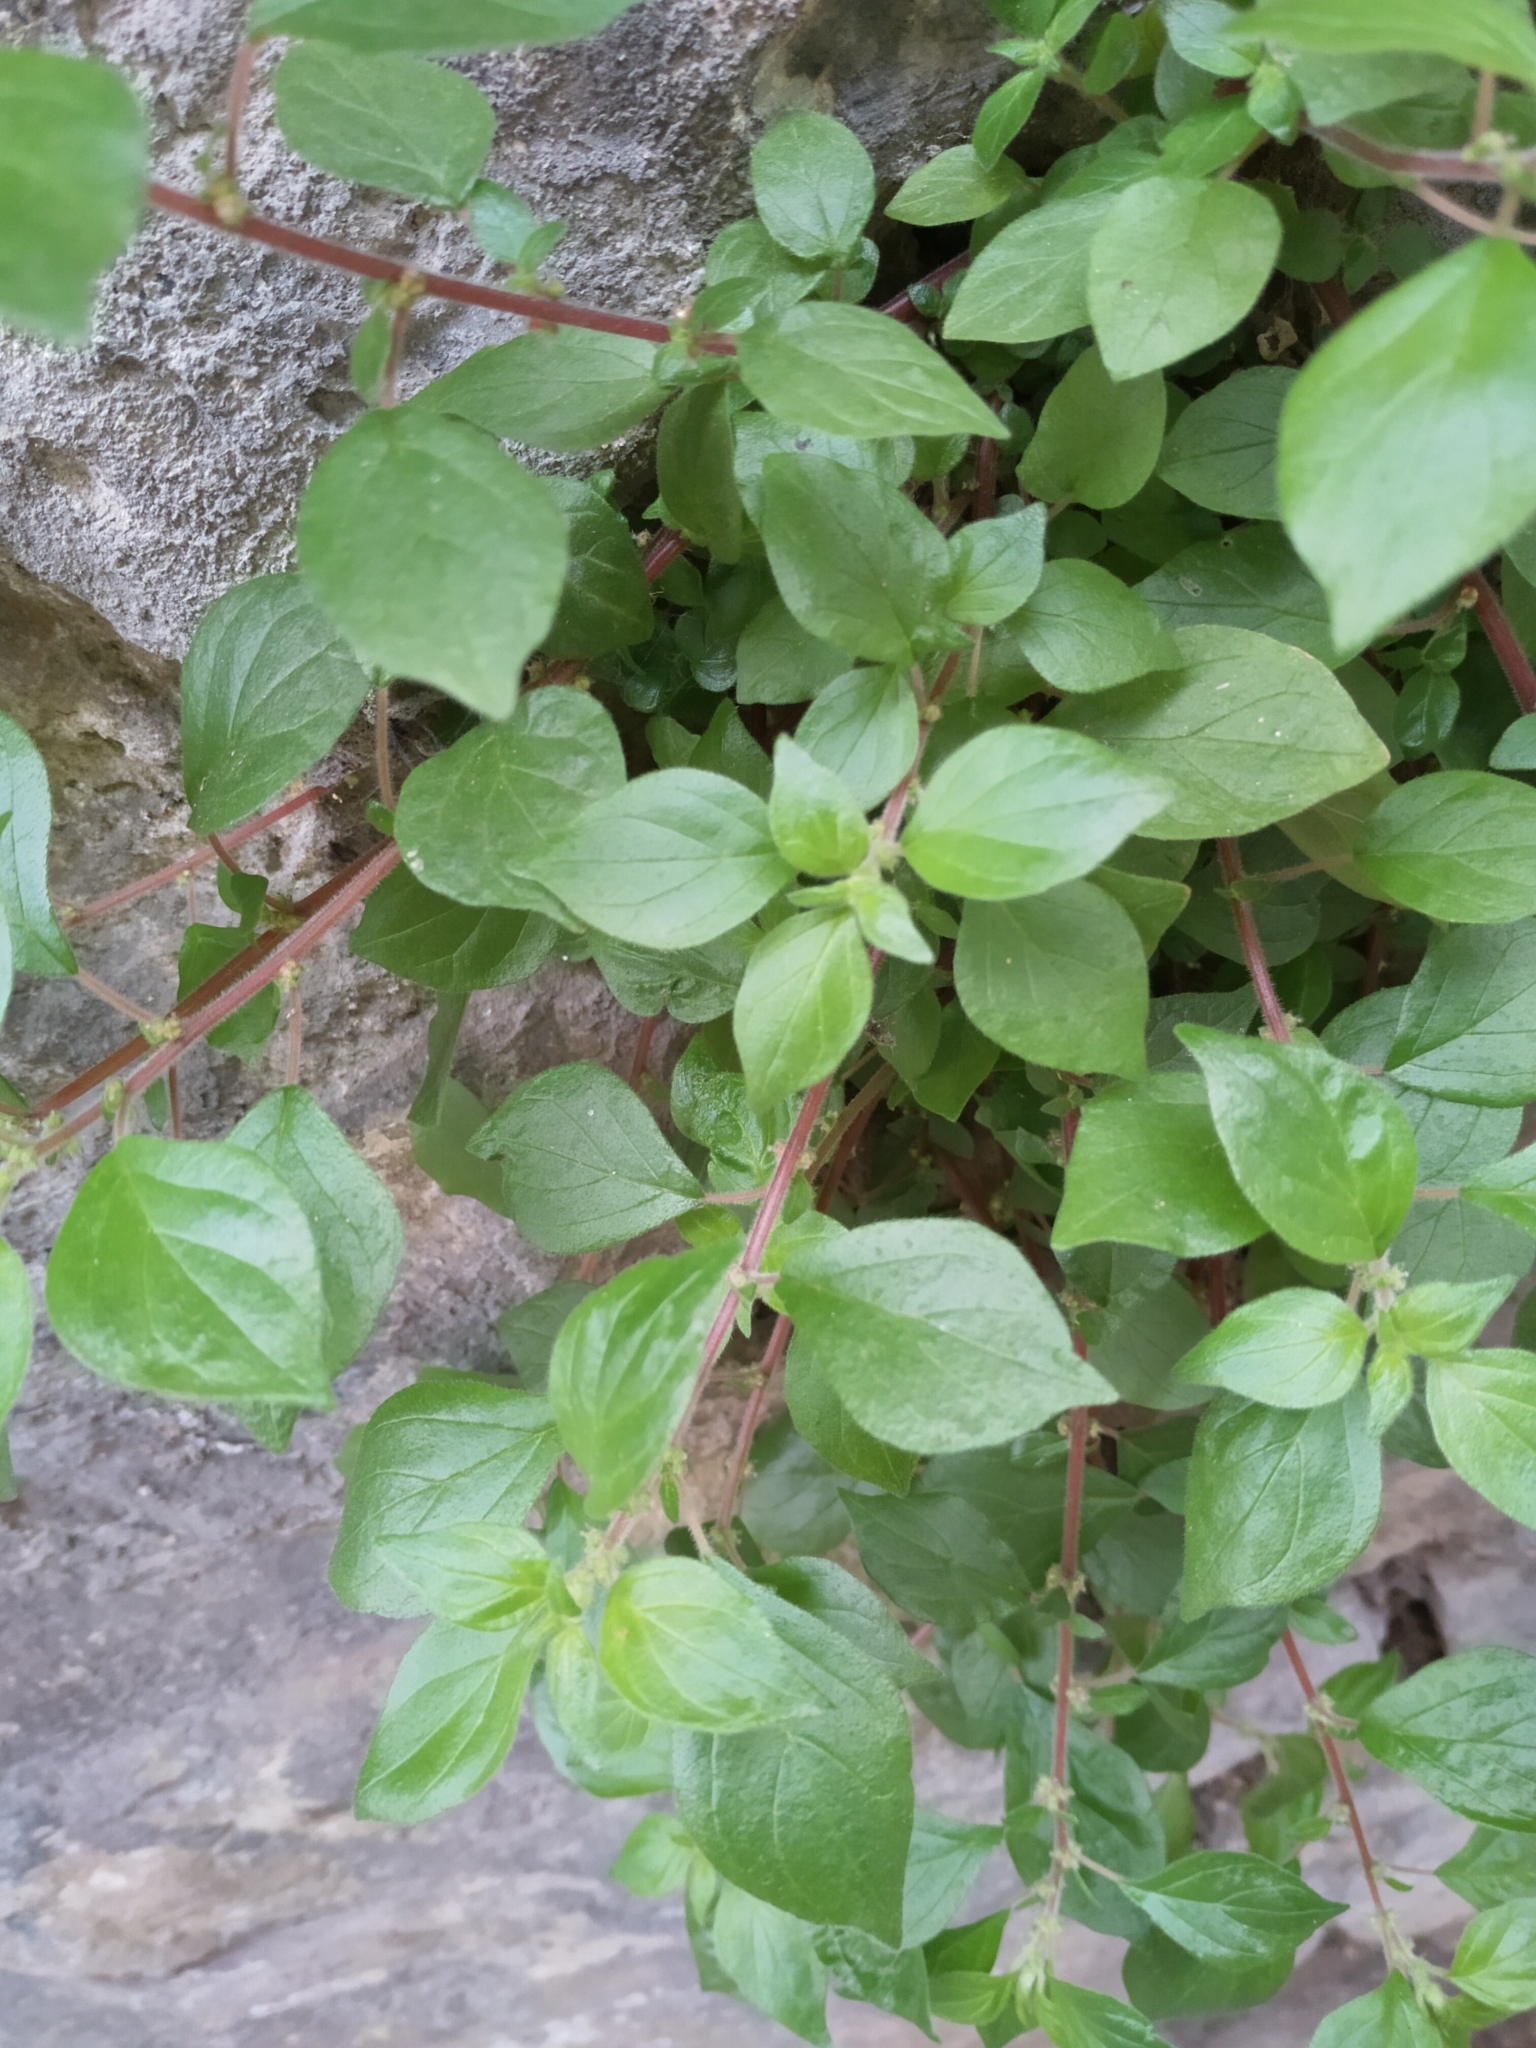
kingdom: Plantae
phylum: Tracheophyta
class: Magnoliopsida
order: Rosales
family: Urticaceae
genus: Parietaria
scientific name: Parietaria judaica
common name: Pellitory-of-the-wall
